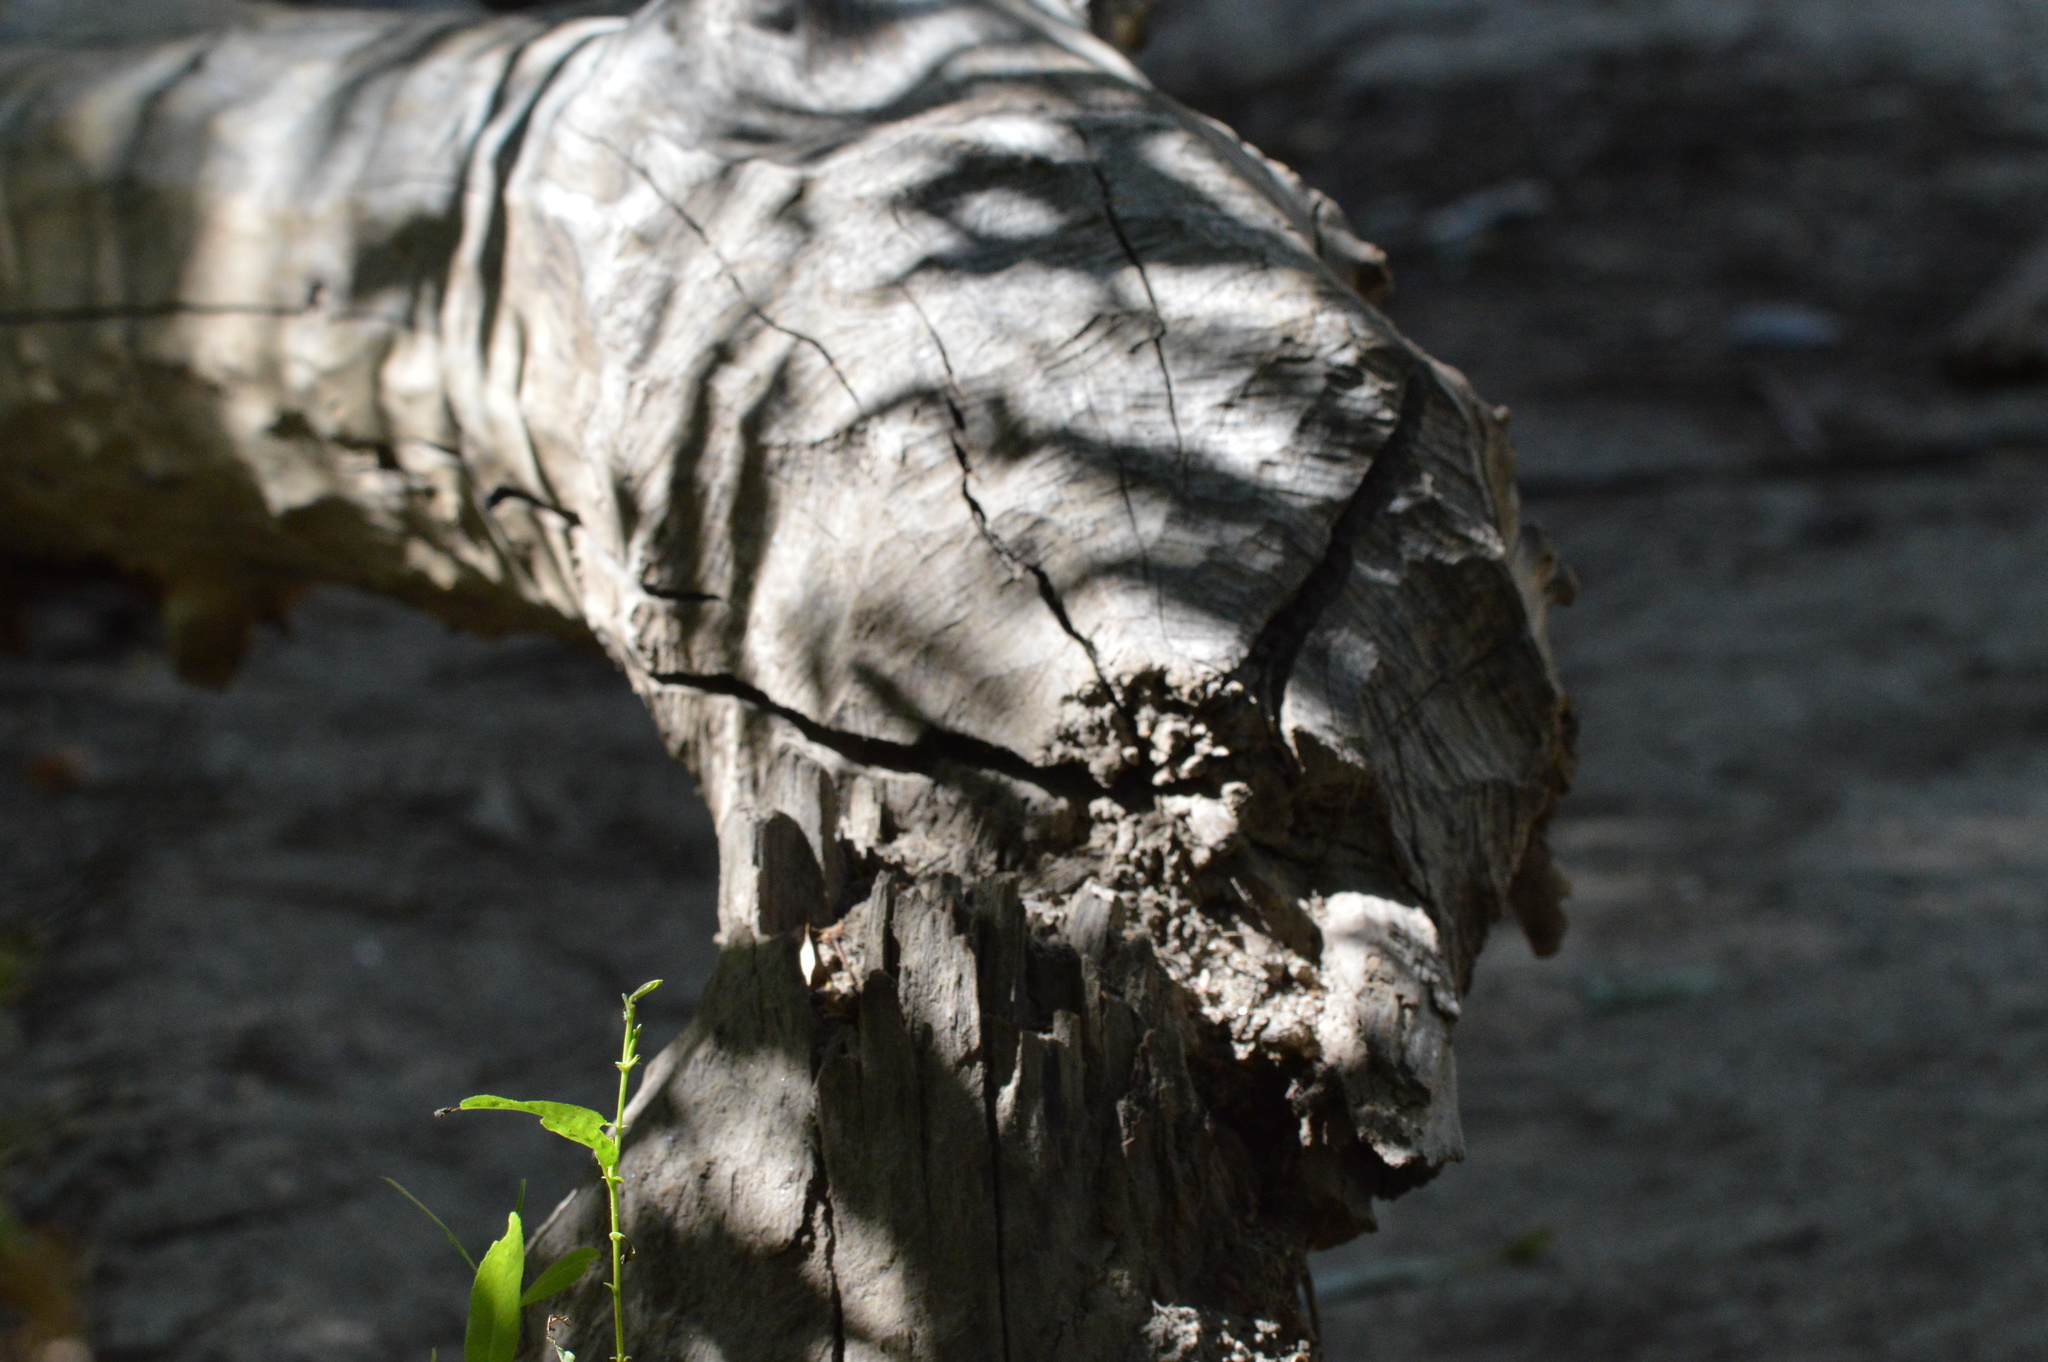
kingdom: Animalia
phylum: Chordata
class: Mammalia
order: Rodentia
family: Castoridae
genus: Castor
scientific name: Castor canadensis
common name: American beaver
